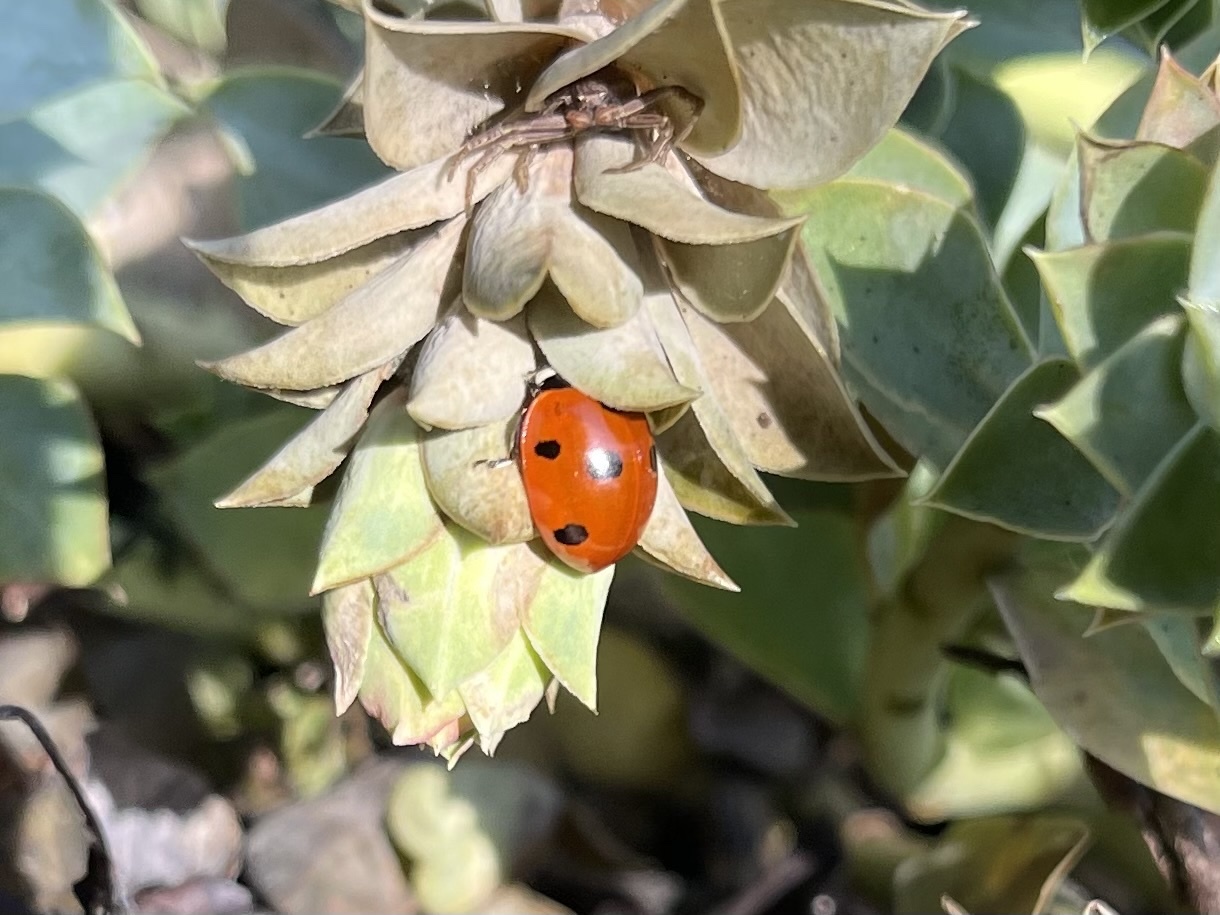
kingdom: Animalia
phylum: Arthropoda
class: Insecta
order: Coleoptera
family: Coccinellidae
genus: Coccinella
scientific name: Coccinella septempunctata
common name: Sevenspotted lady beetle
